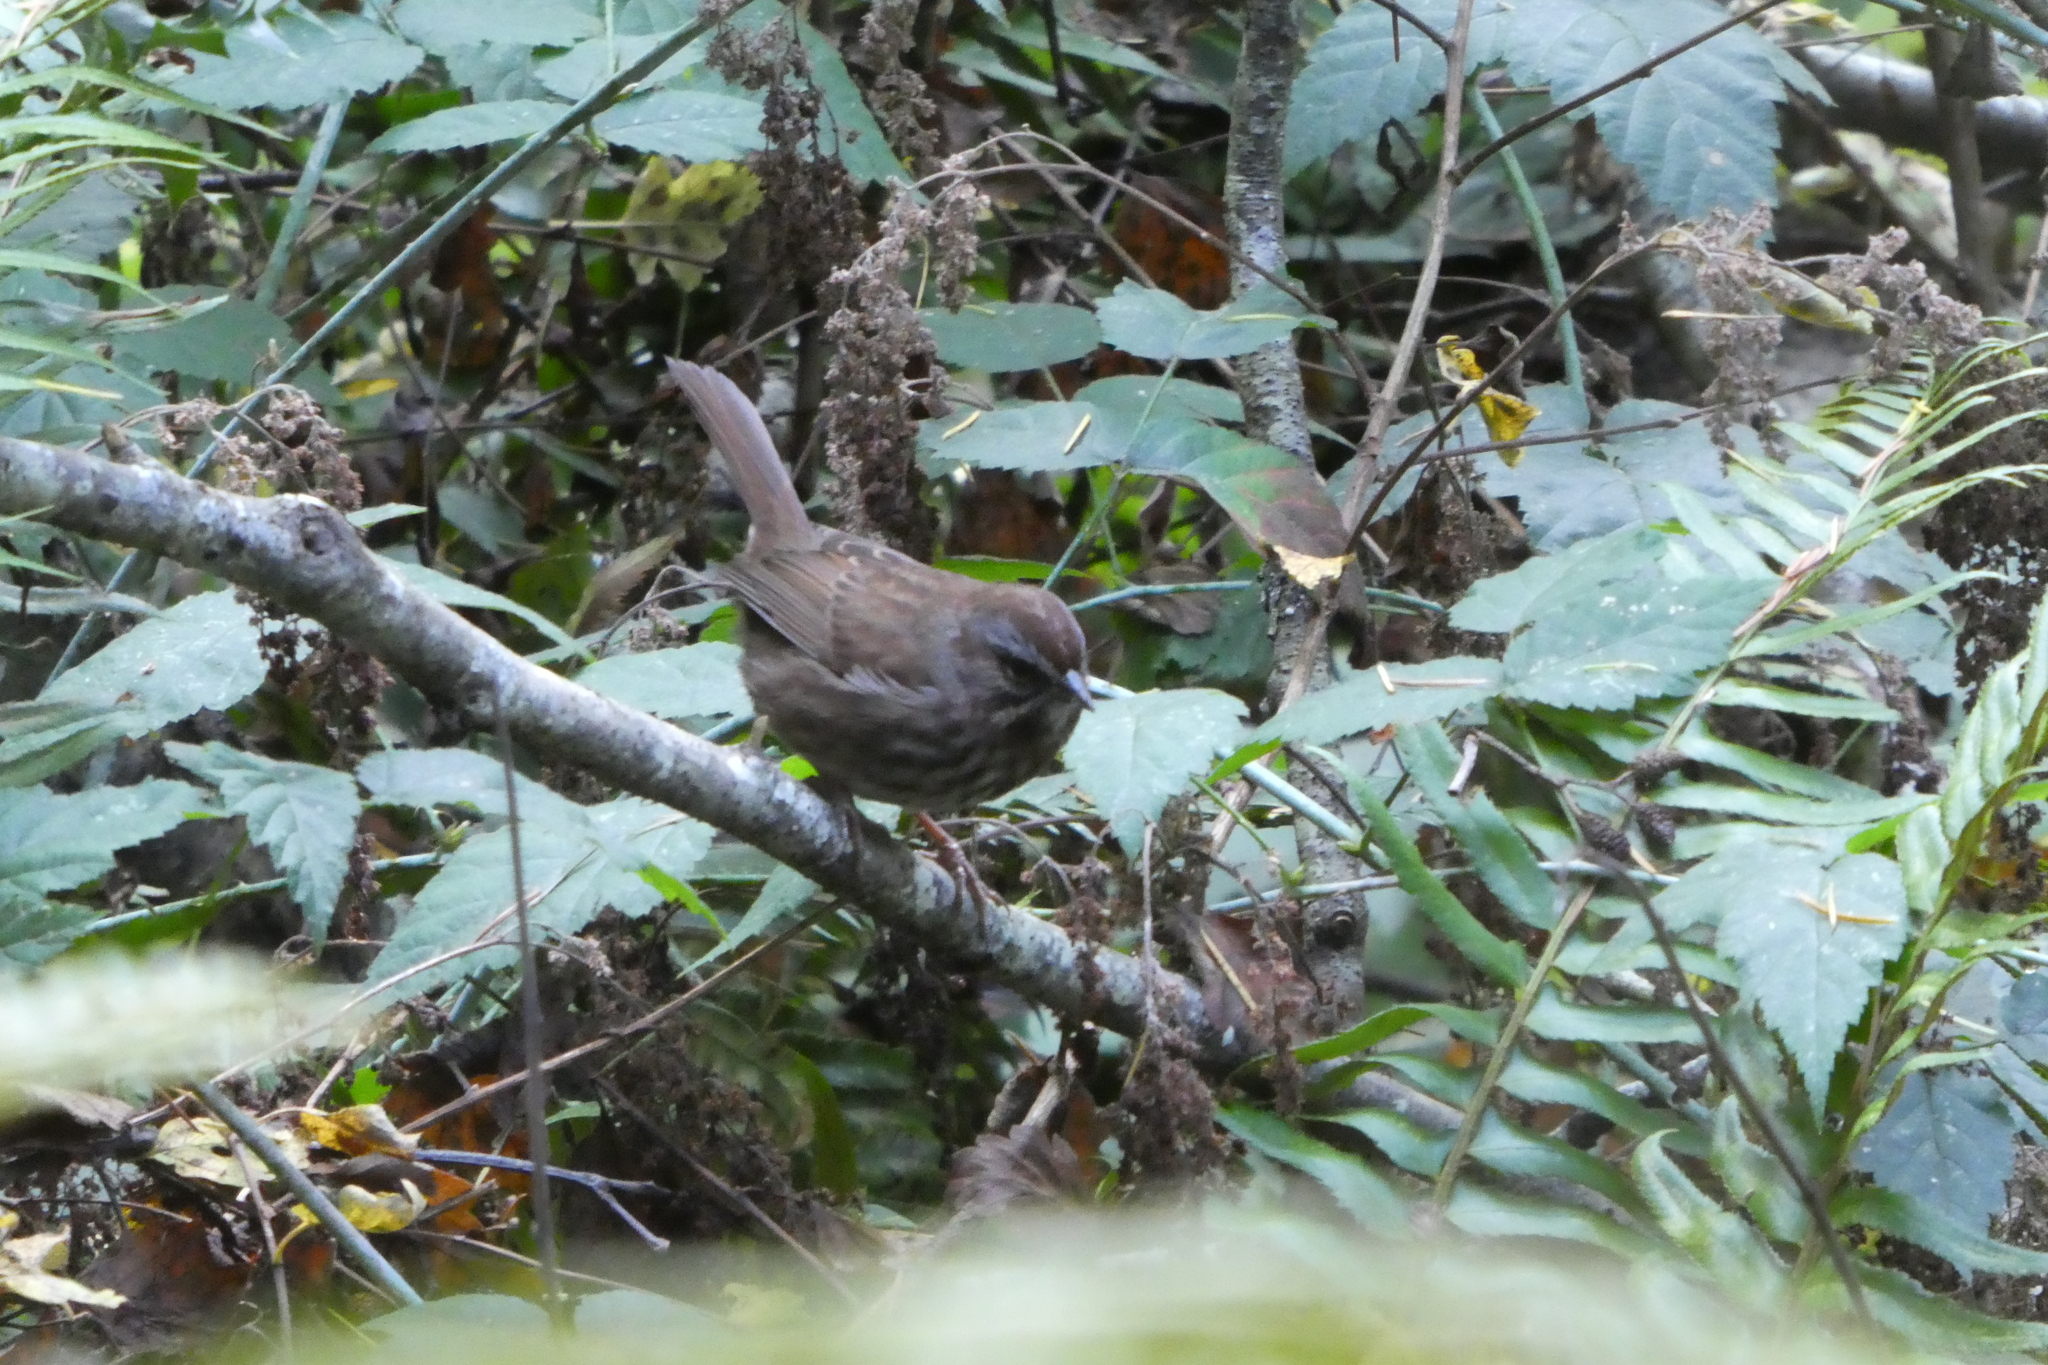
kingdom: Animalia
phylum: Chordata
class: Aves
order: Passeriformes
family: Passerellidae
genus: Melospiza
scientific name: Melospiza melodia
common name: Song sparrow
